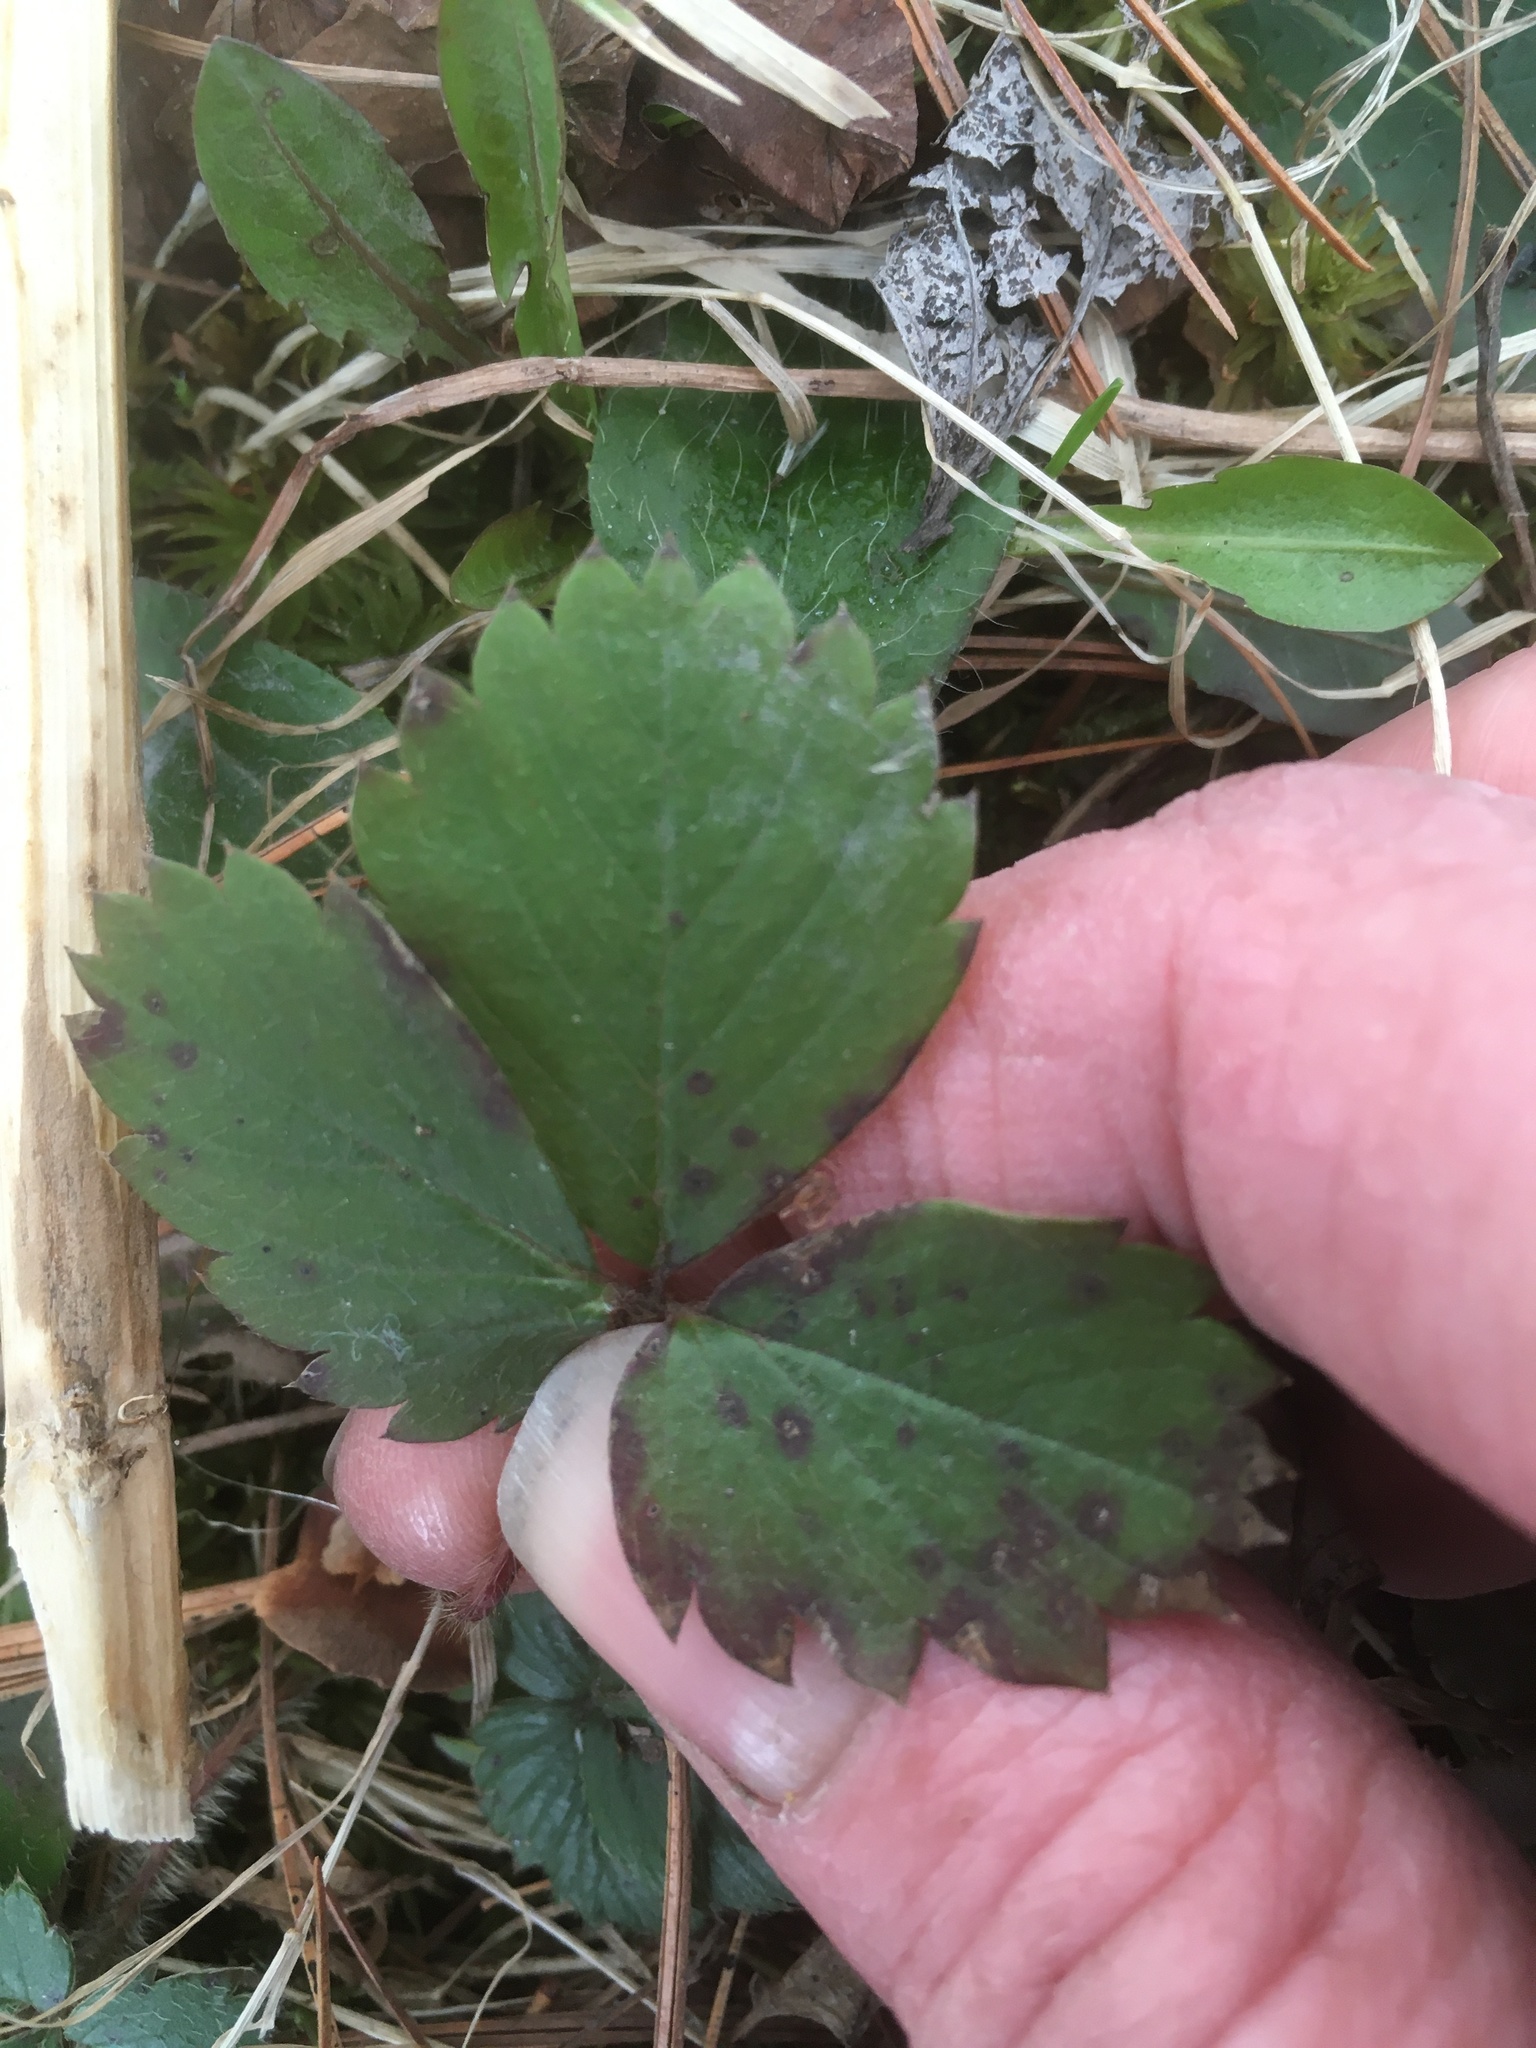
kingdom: Plantae
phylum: Tracheophyta
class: Magnoliopsida
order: Rosales
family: Rosaceae
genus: Fragaria
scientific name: Fragaria virginiana
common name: Thickleaved wild strawberry
